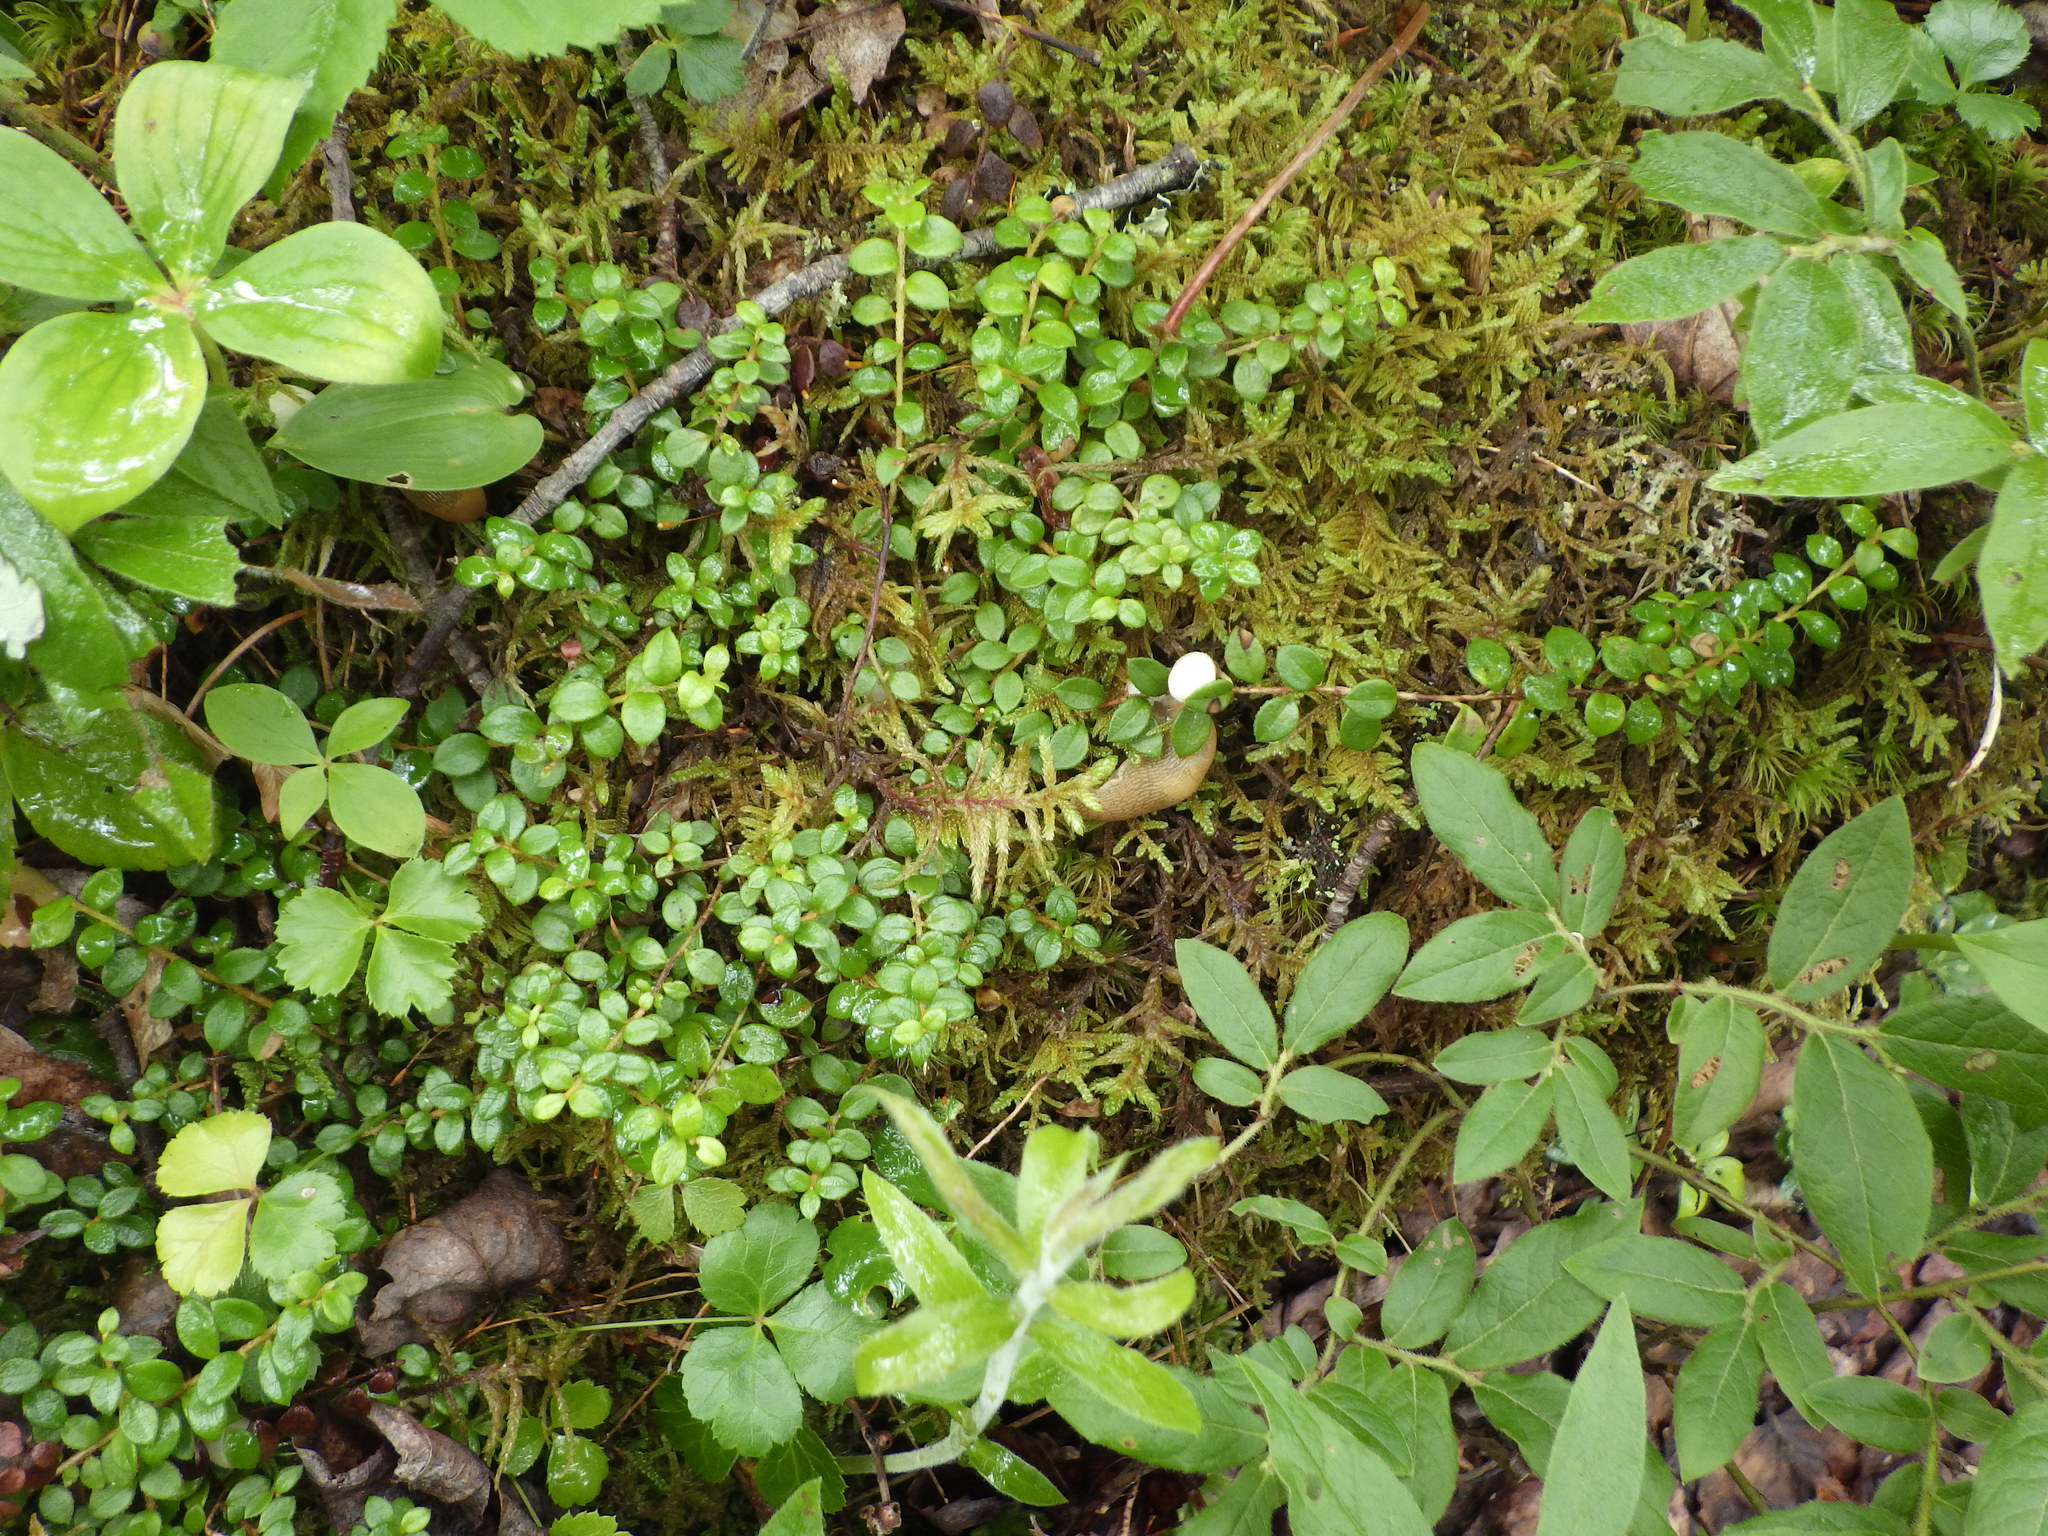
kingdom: Plantae
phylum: Tracheophyta
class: Magnoliopsida
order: Ericales
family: Ericaceae
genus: Gaultheria
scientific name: Gaultheria hispidula
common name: Cancer wintergreen
